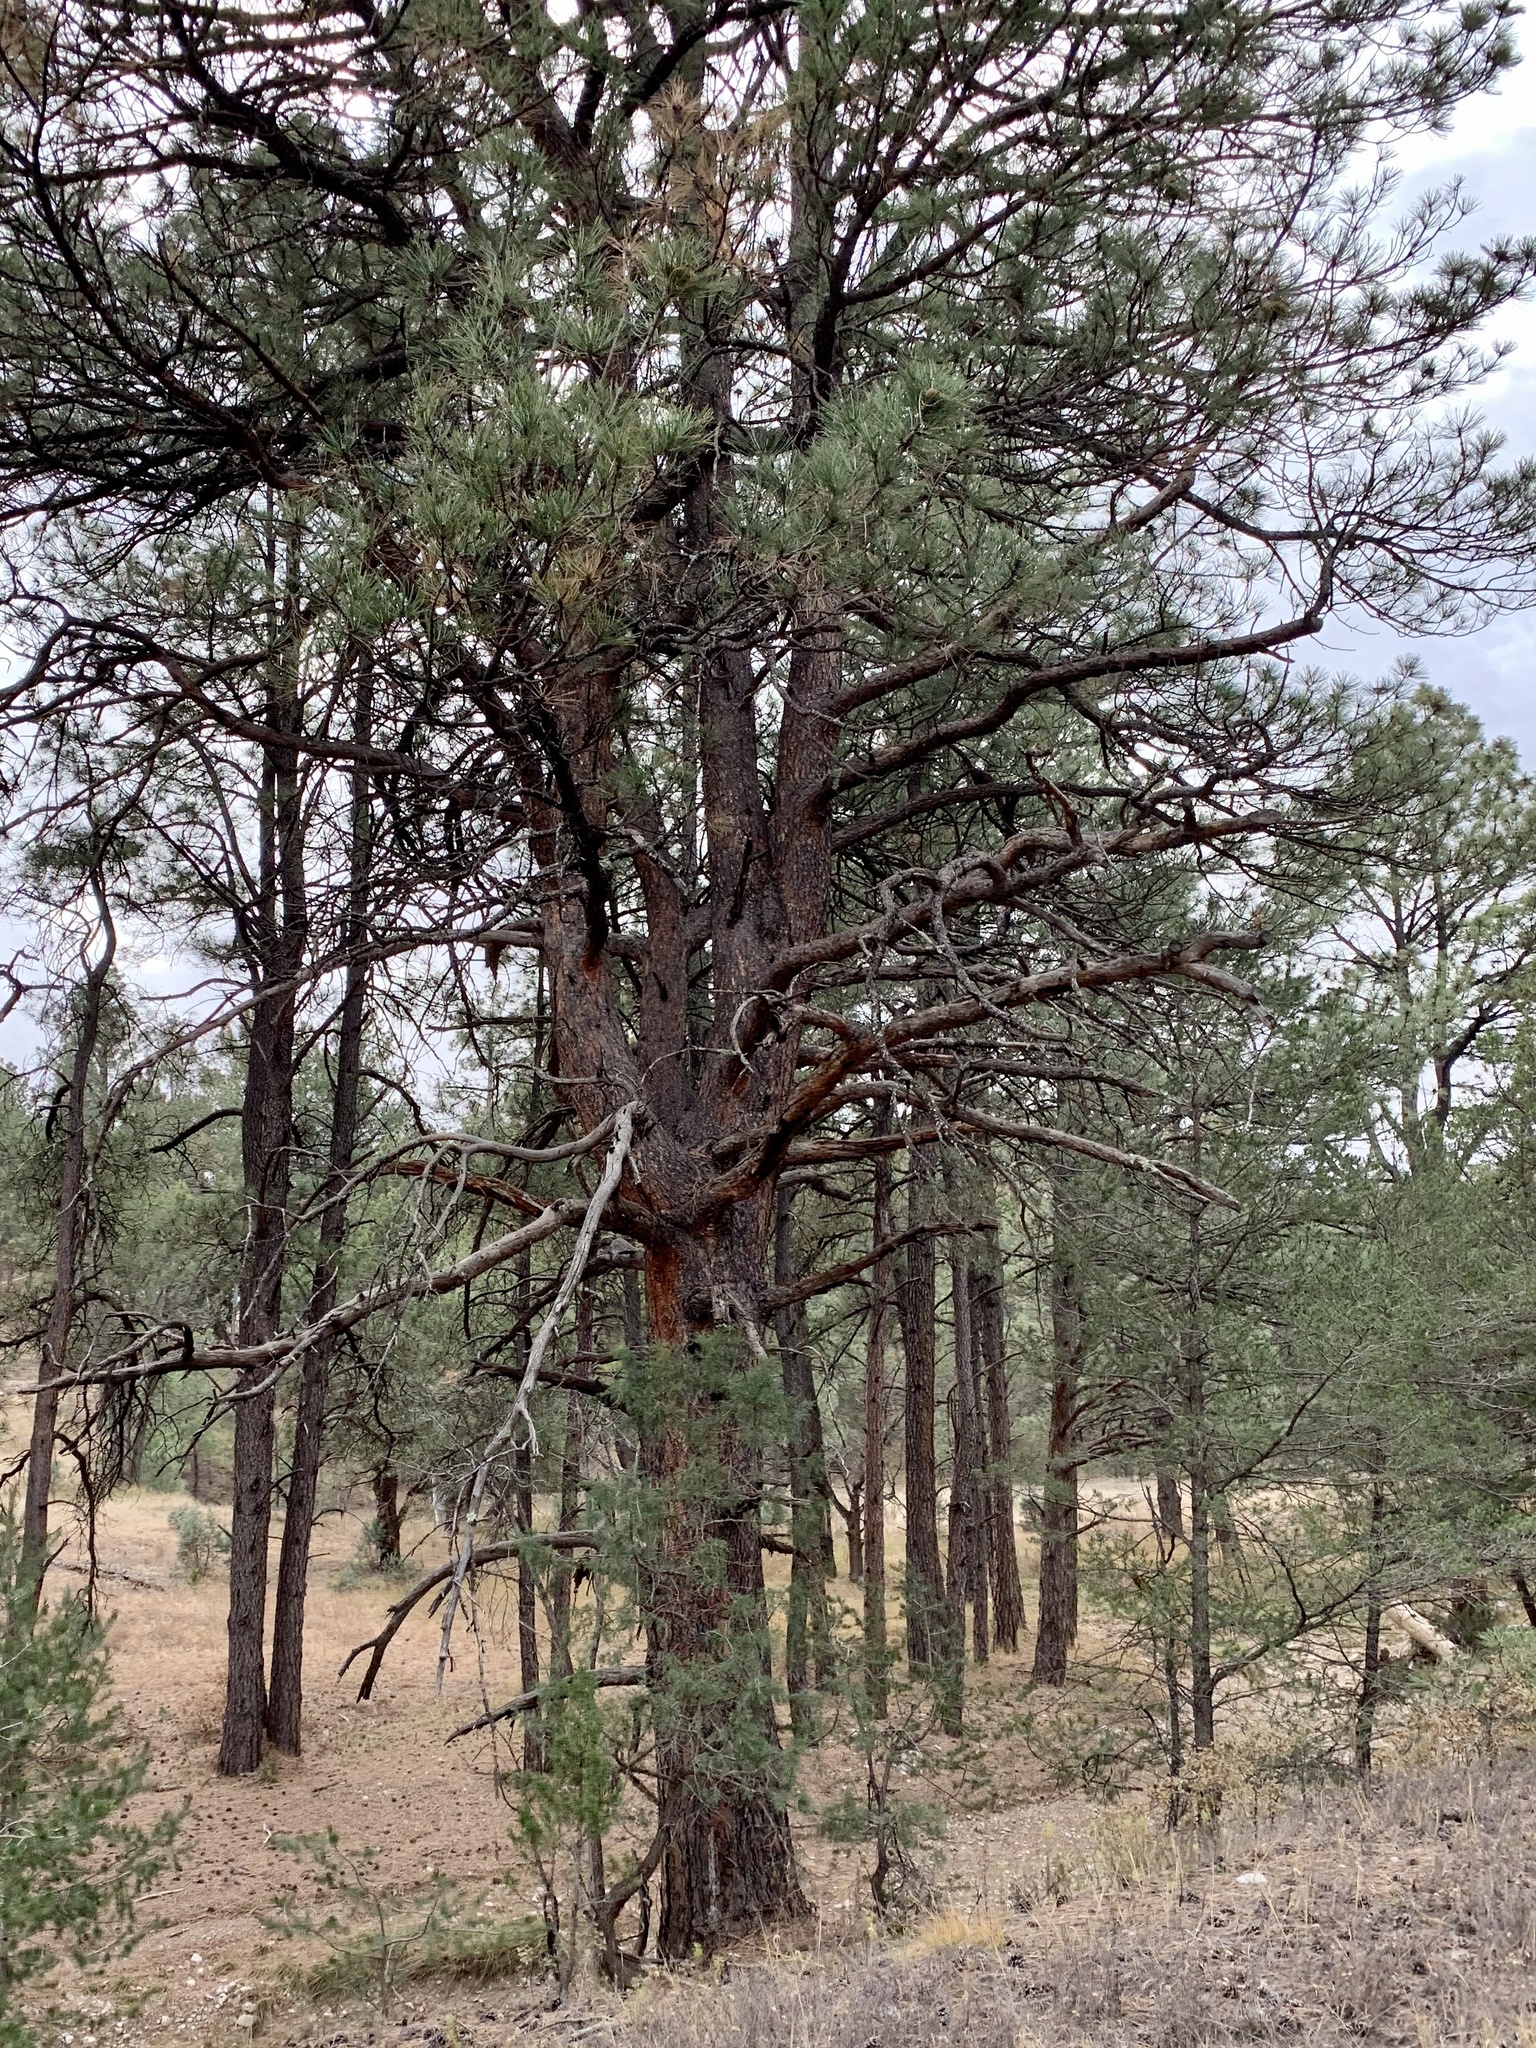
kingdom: Plantae
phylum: Tracheophyta
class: Pinopsida
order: Pinales
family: Pinaceae
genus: Pinus
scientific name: Pinus ponderosa
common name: Western yellow-pine
